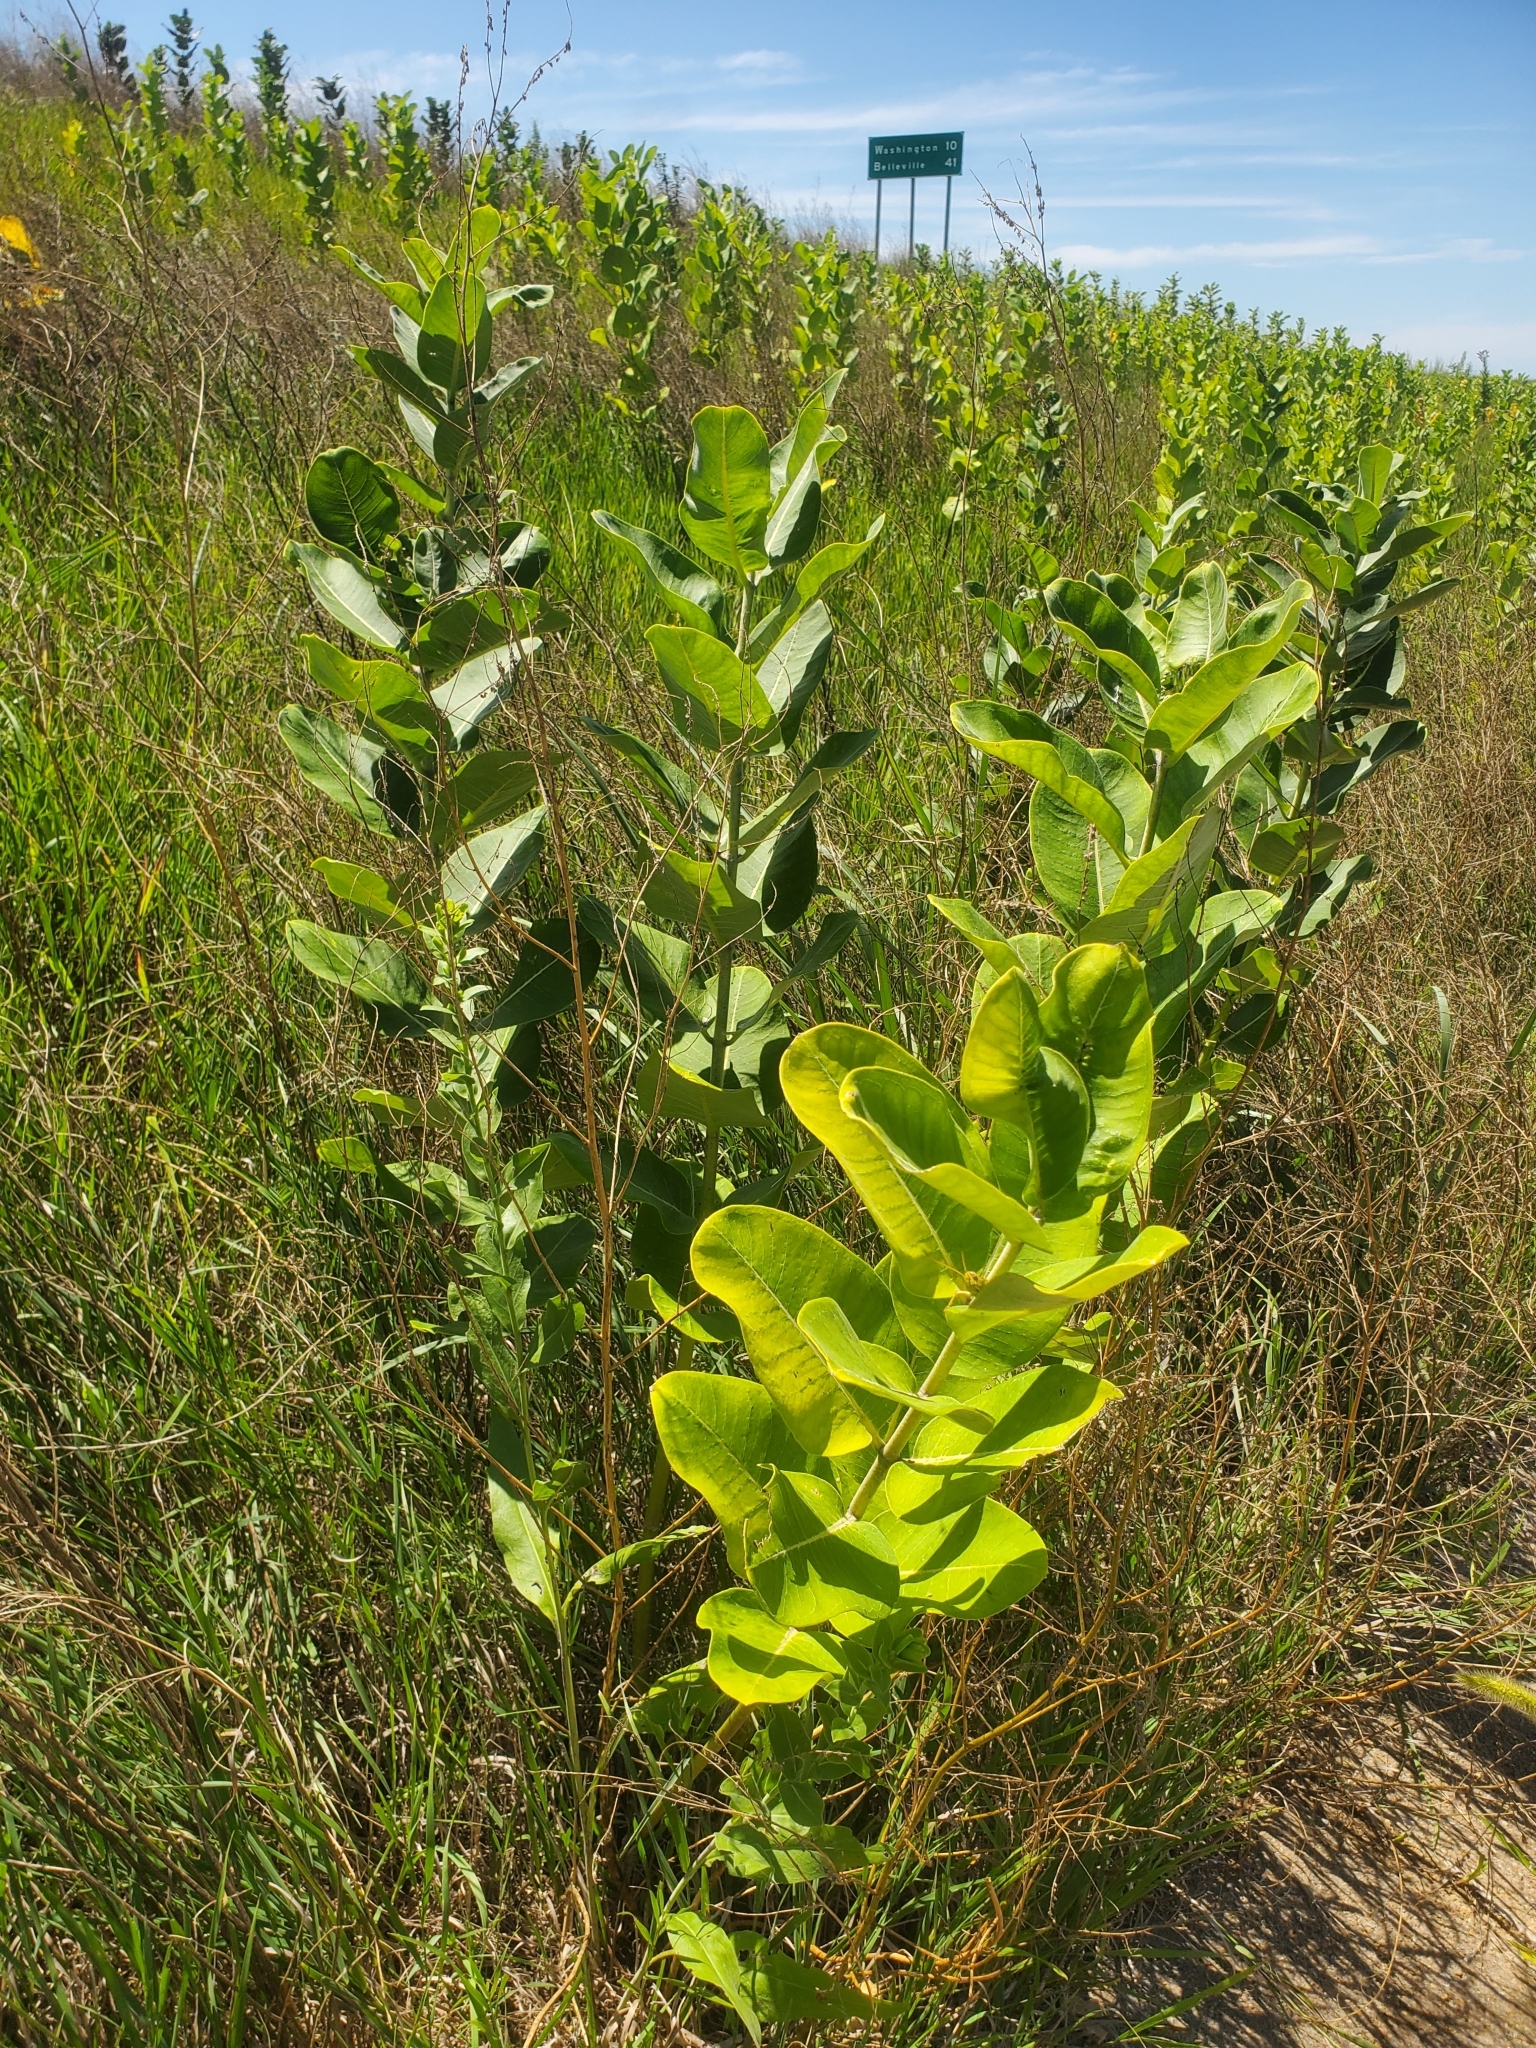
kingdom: Plantae
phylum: Tracheophyta
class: Magnoliopsida
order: Gentianales
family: Apocynaceae
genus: Asclepias
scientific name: Asclepias syriaca
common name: Common milkweed
